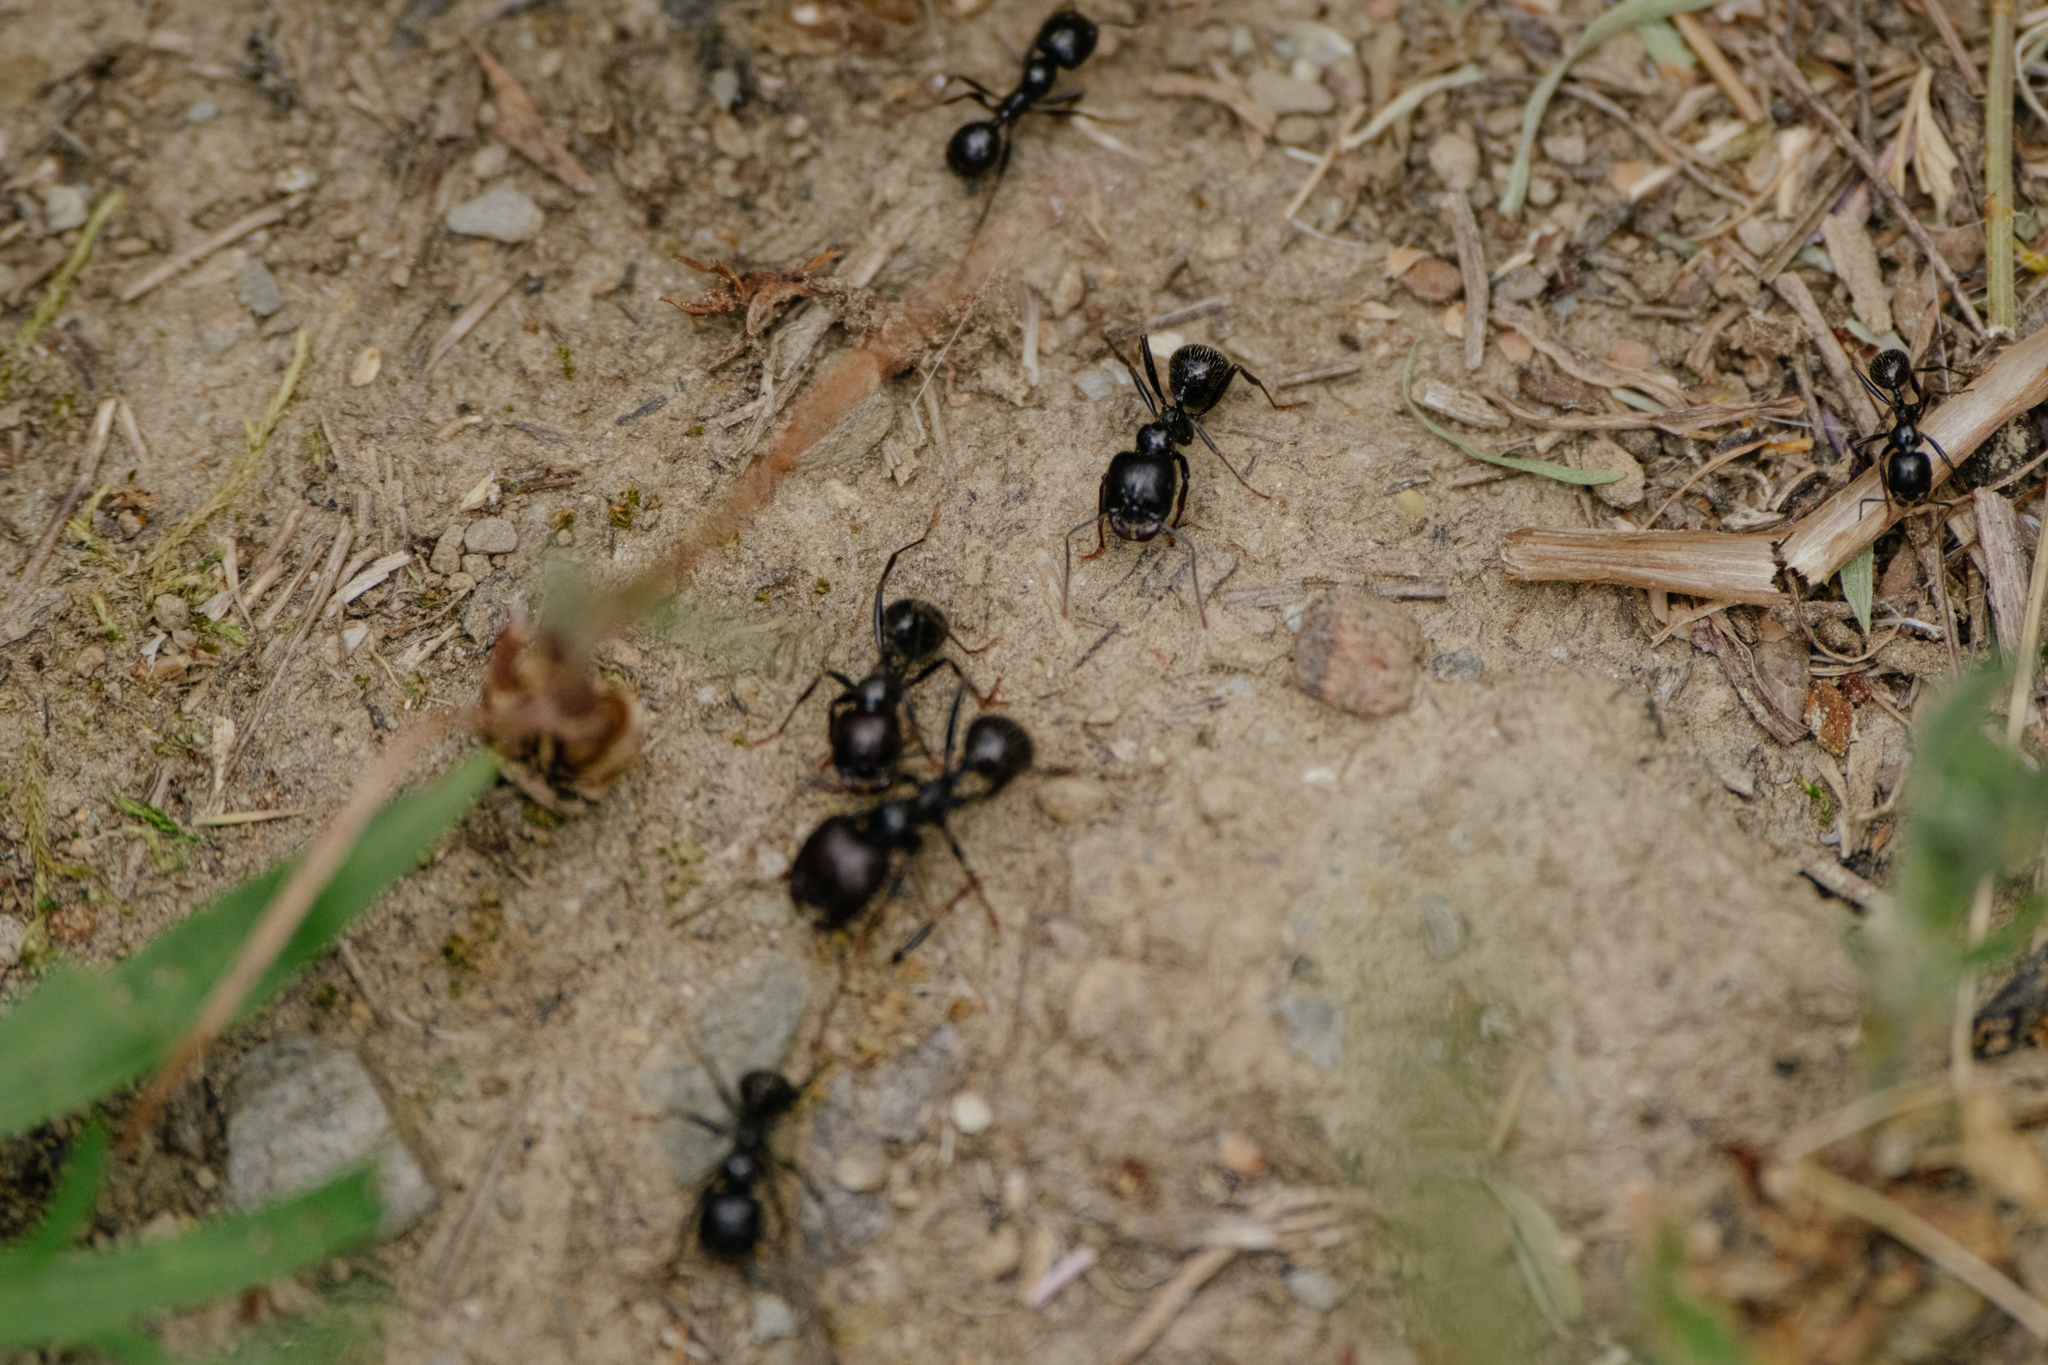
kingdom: Animalia
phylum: Arthropoda
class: Insecta
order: Hymenoptera
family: Formicidae
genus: Messor
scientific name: Messor barbarus
